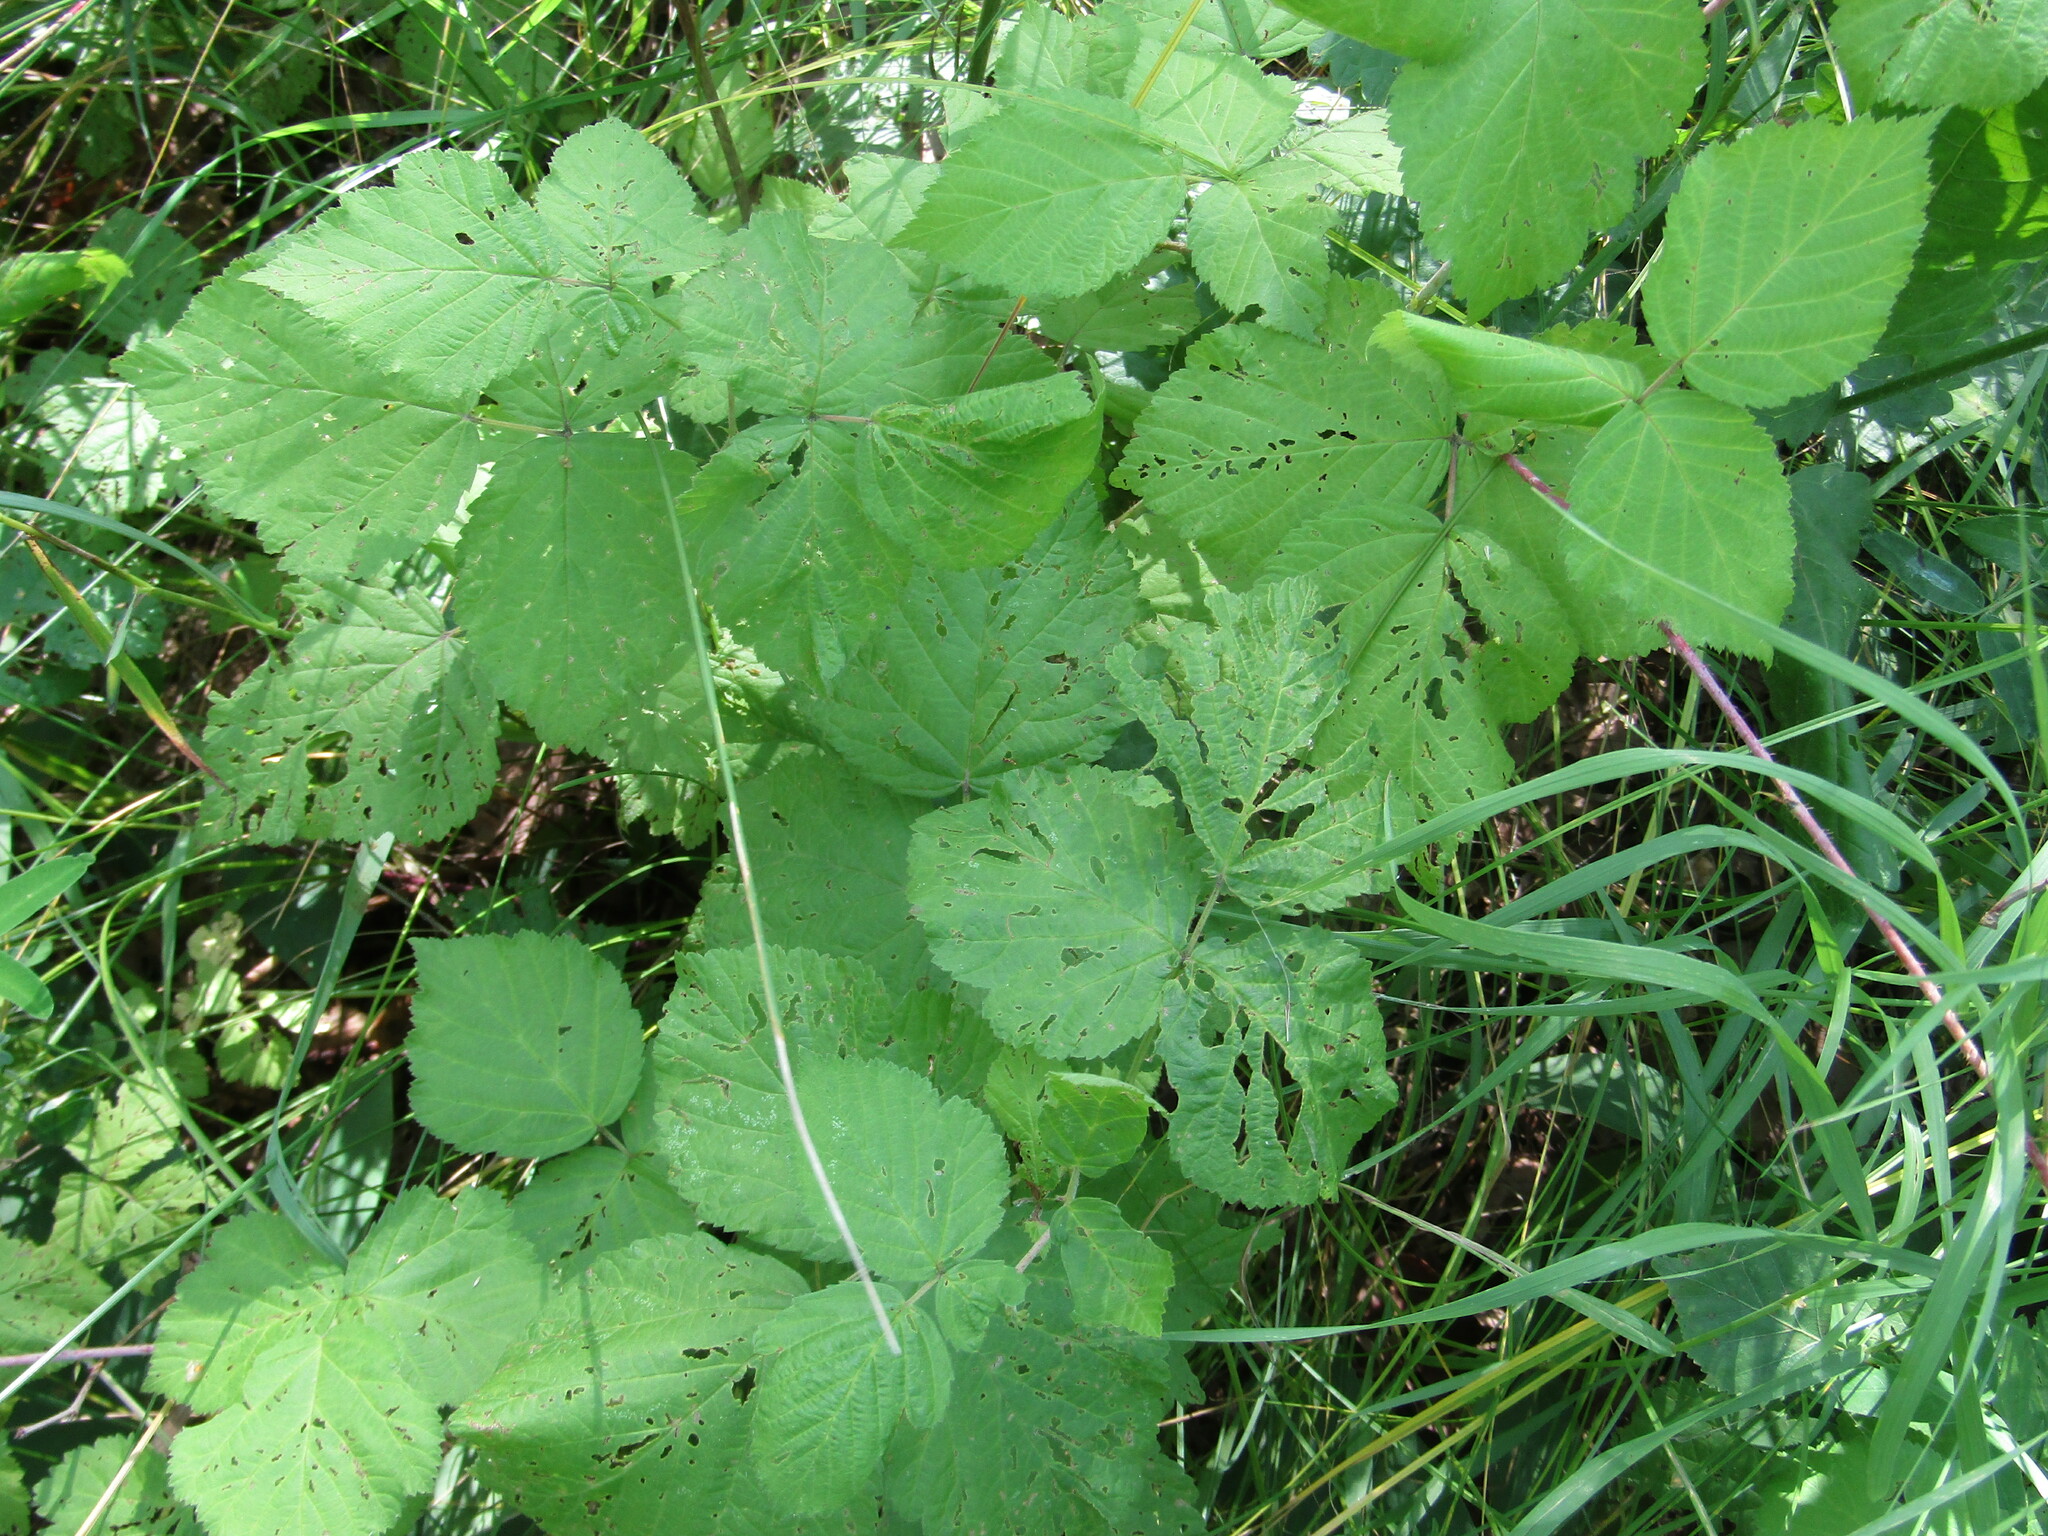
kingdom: Plantae
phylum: Tracheophyta
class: Magnoliopsida
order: Rosales
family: Rosaceae
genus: Rubus
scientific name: Rubus caesius
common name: Dewberry
